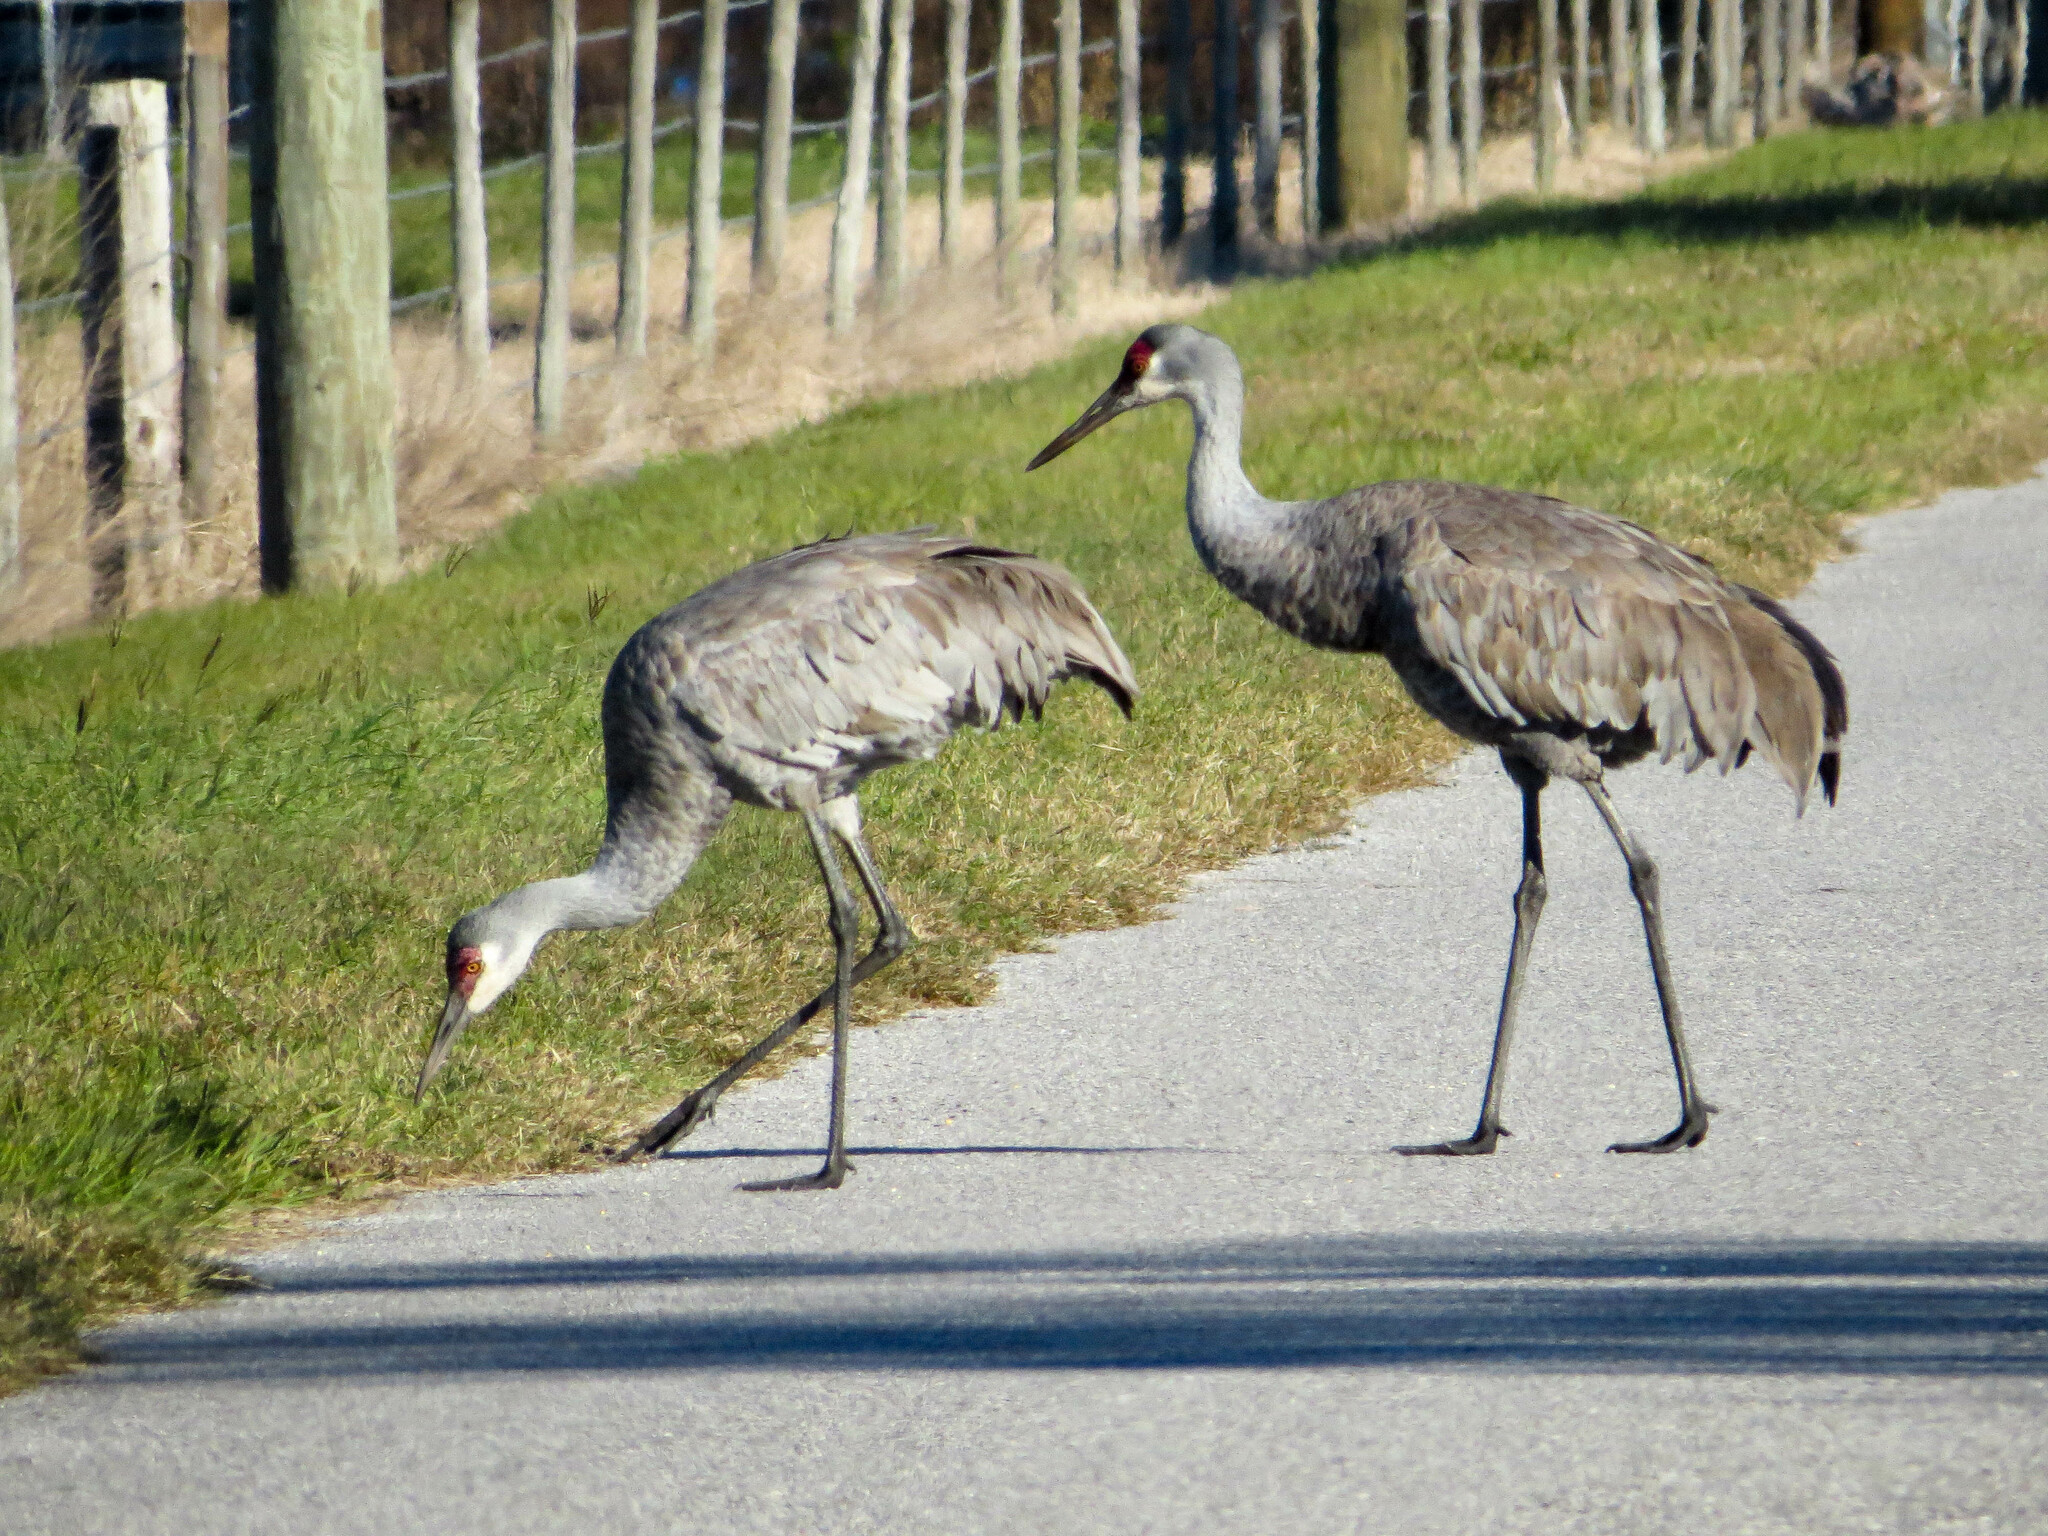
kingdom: Animalia
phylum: Chordata
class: Aves
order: Gruiformes
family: Gruidae
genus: Grus
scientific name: Grus canadensis
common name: Sandhill crane
